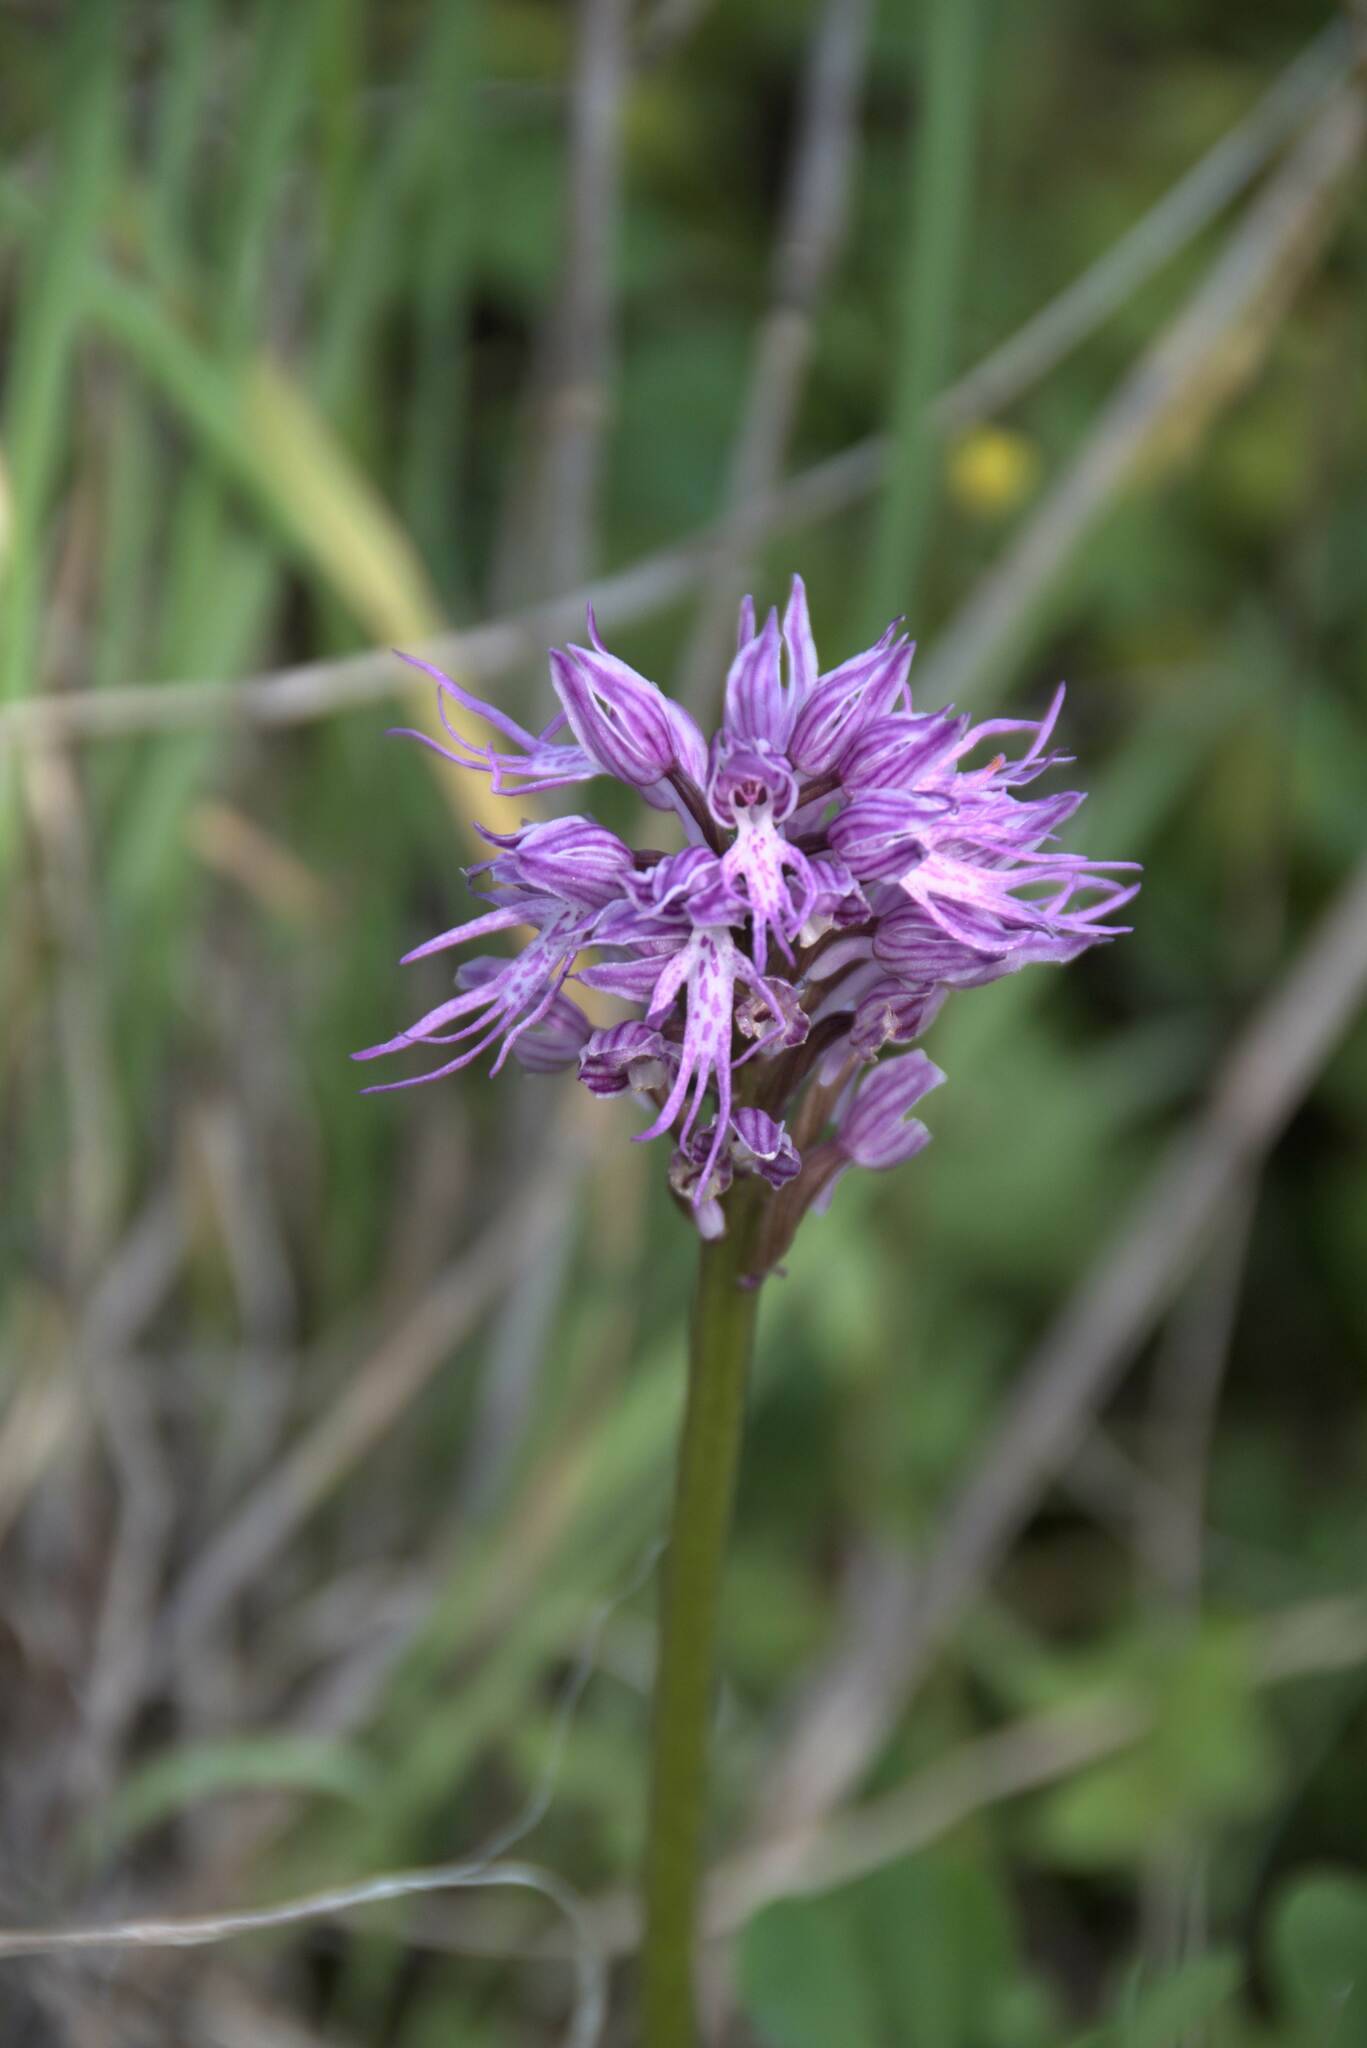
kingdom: Plantae
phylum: Tracheophyta
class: Liliopsida
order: Asparagales
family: Orchidaceae
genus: Orchis
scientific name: Orchis italica
